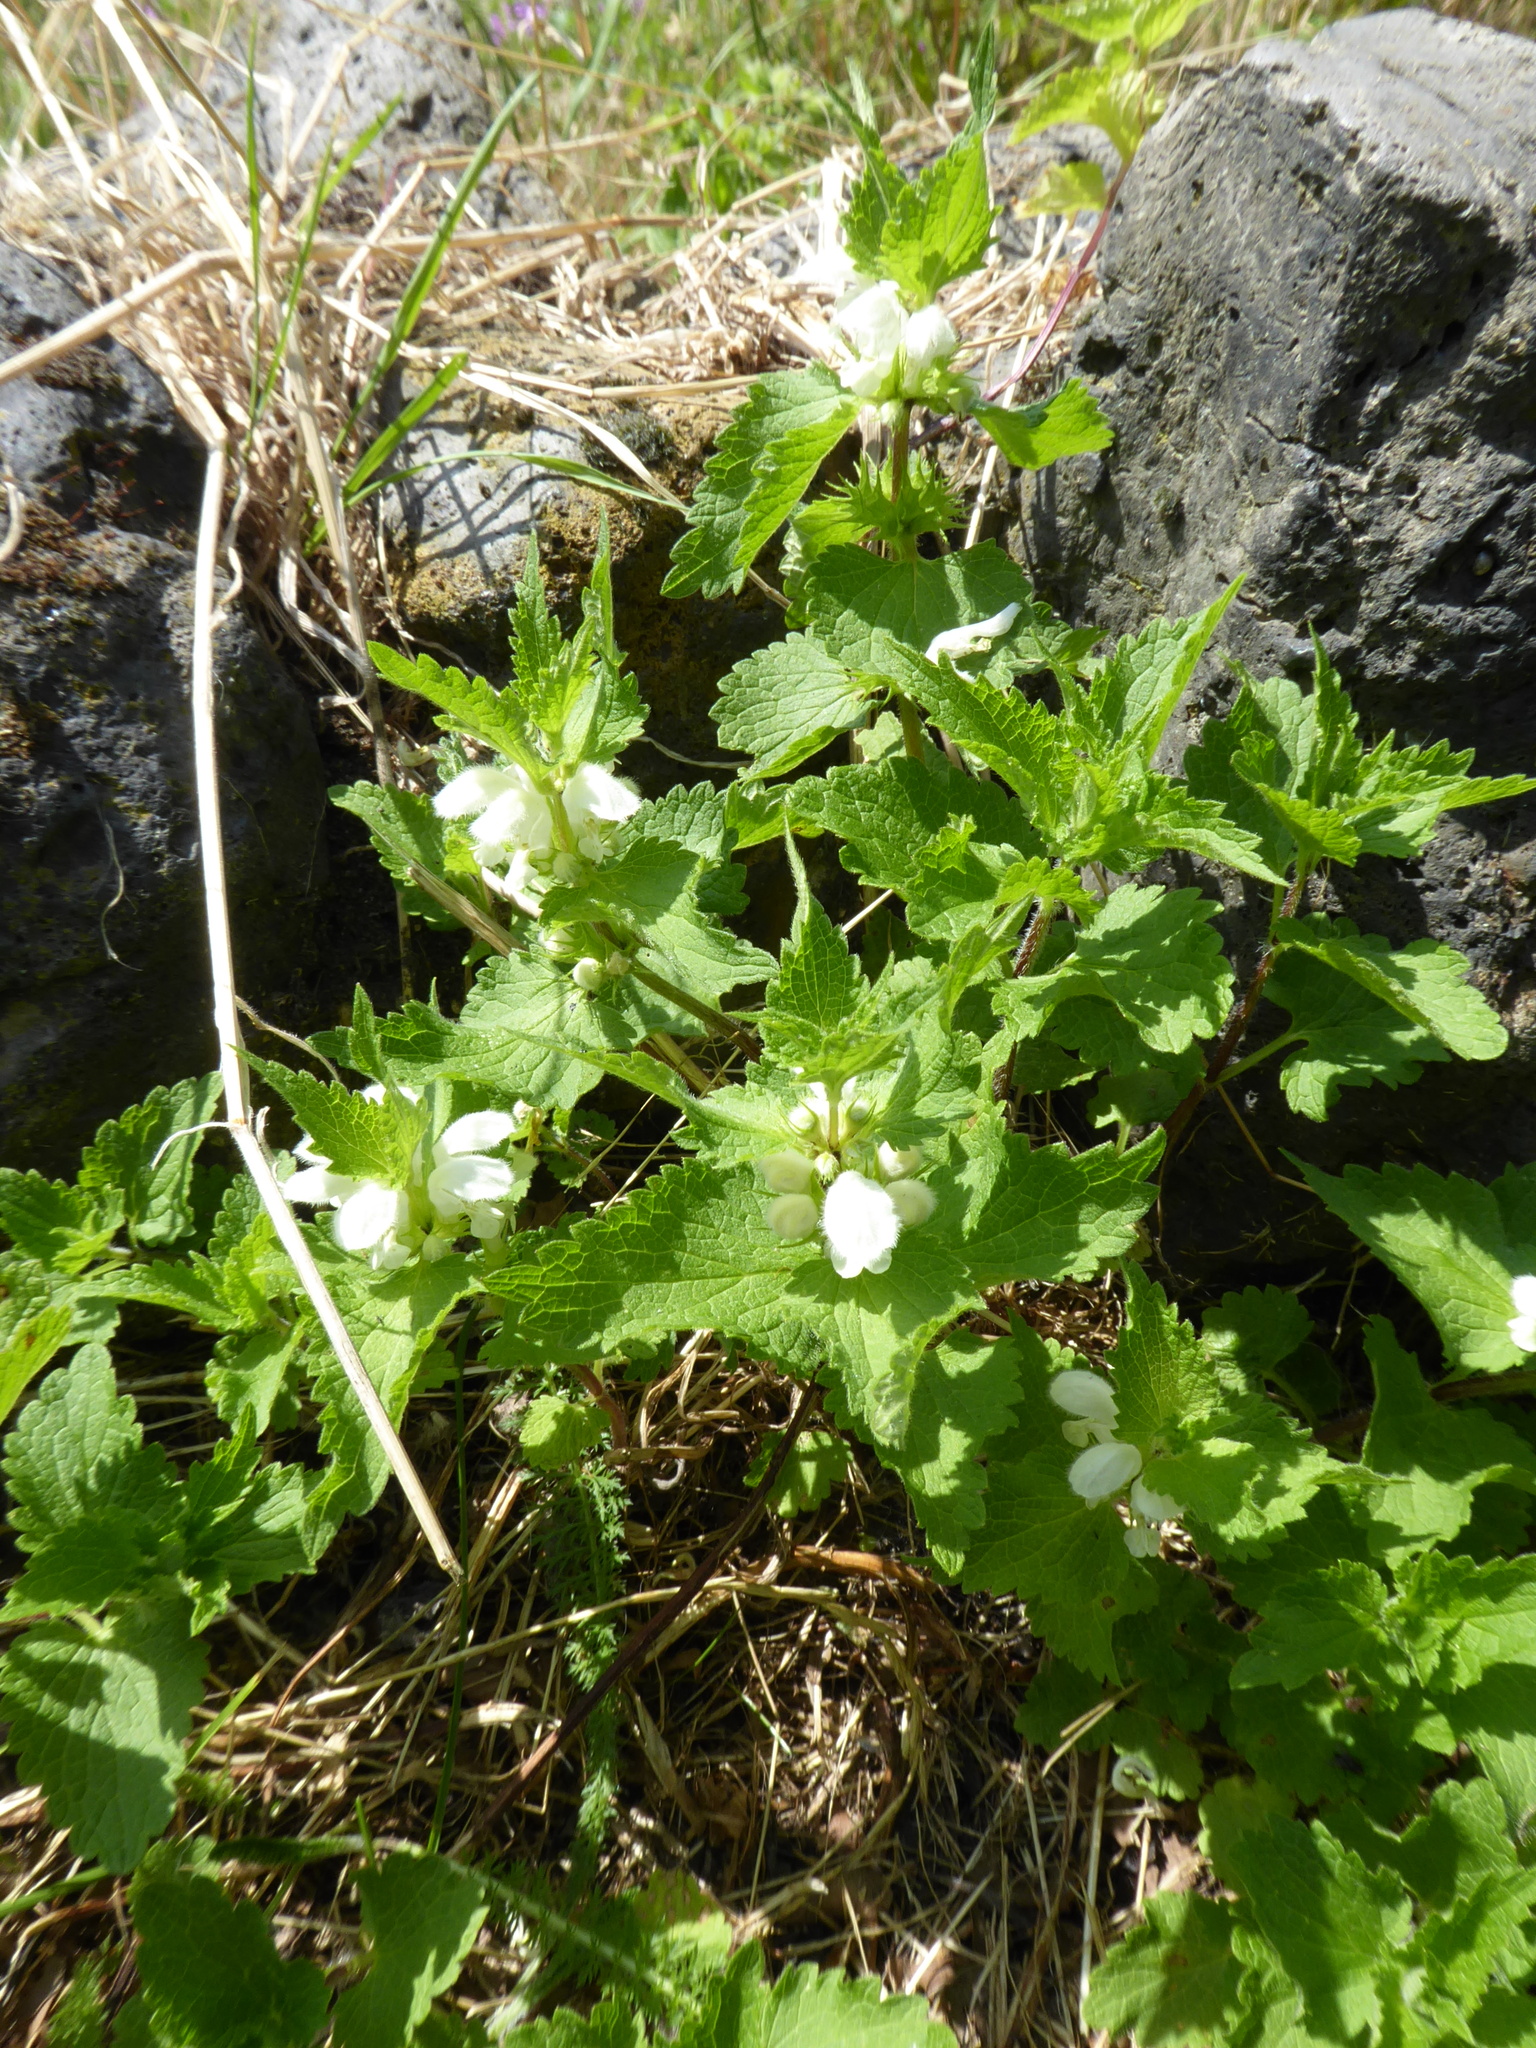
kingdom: Plantae
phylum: Tracheophyta
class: Magnoliopsida
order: Lamiales
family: Lamiaceae
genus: Lamium
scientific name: Lamium album
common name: White dead-nettle
